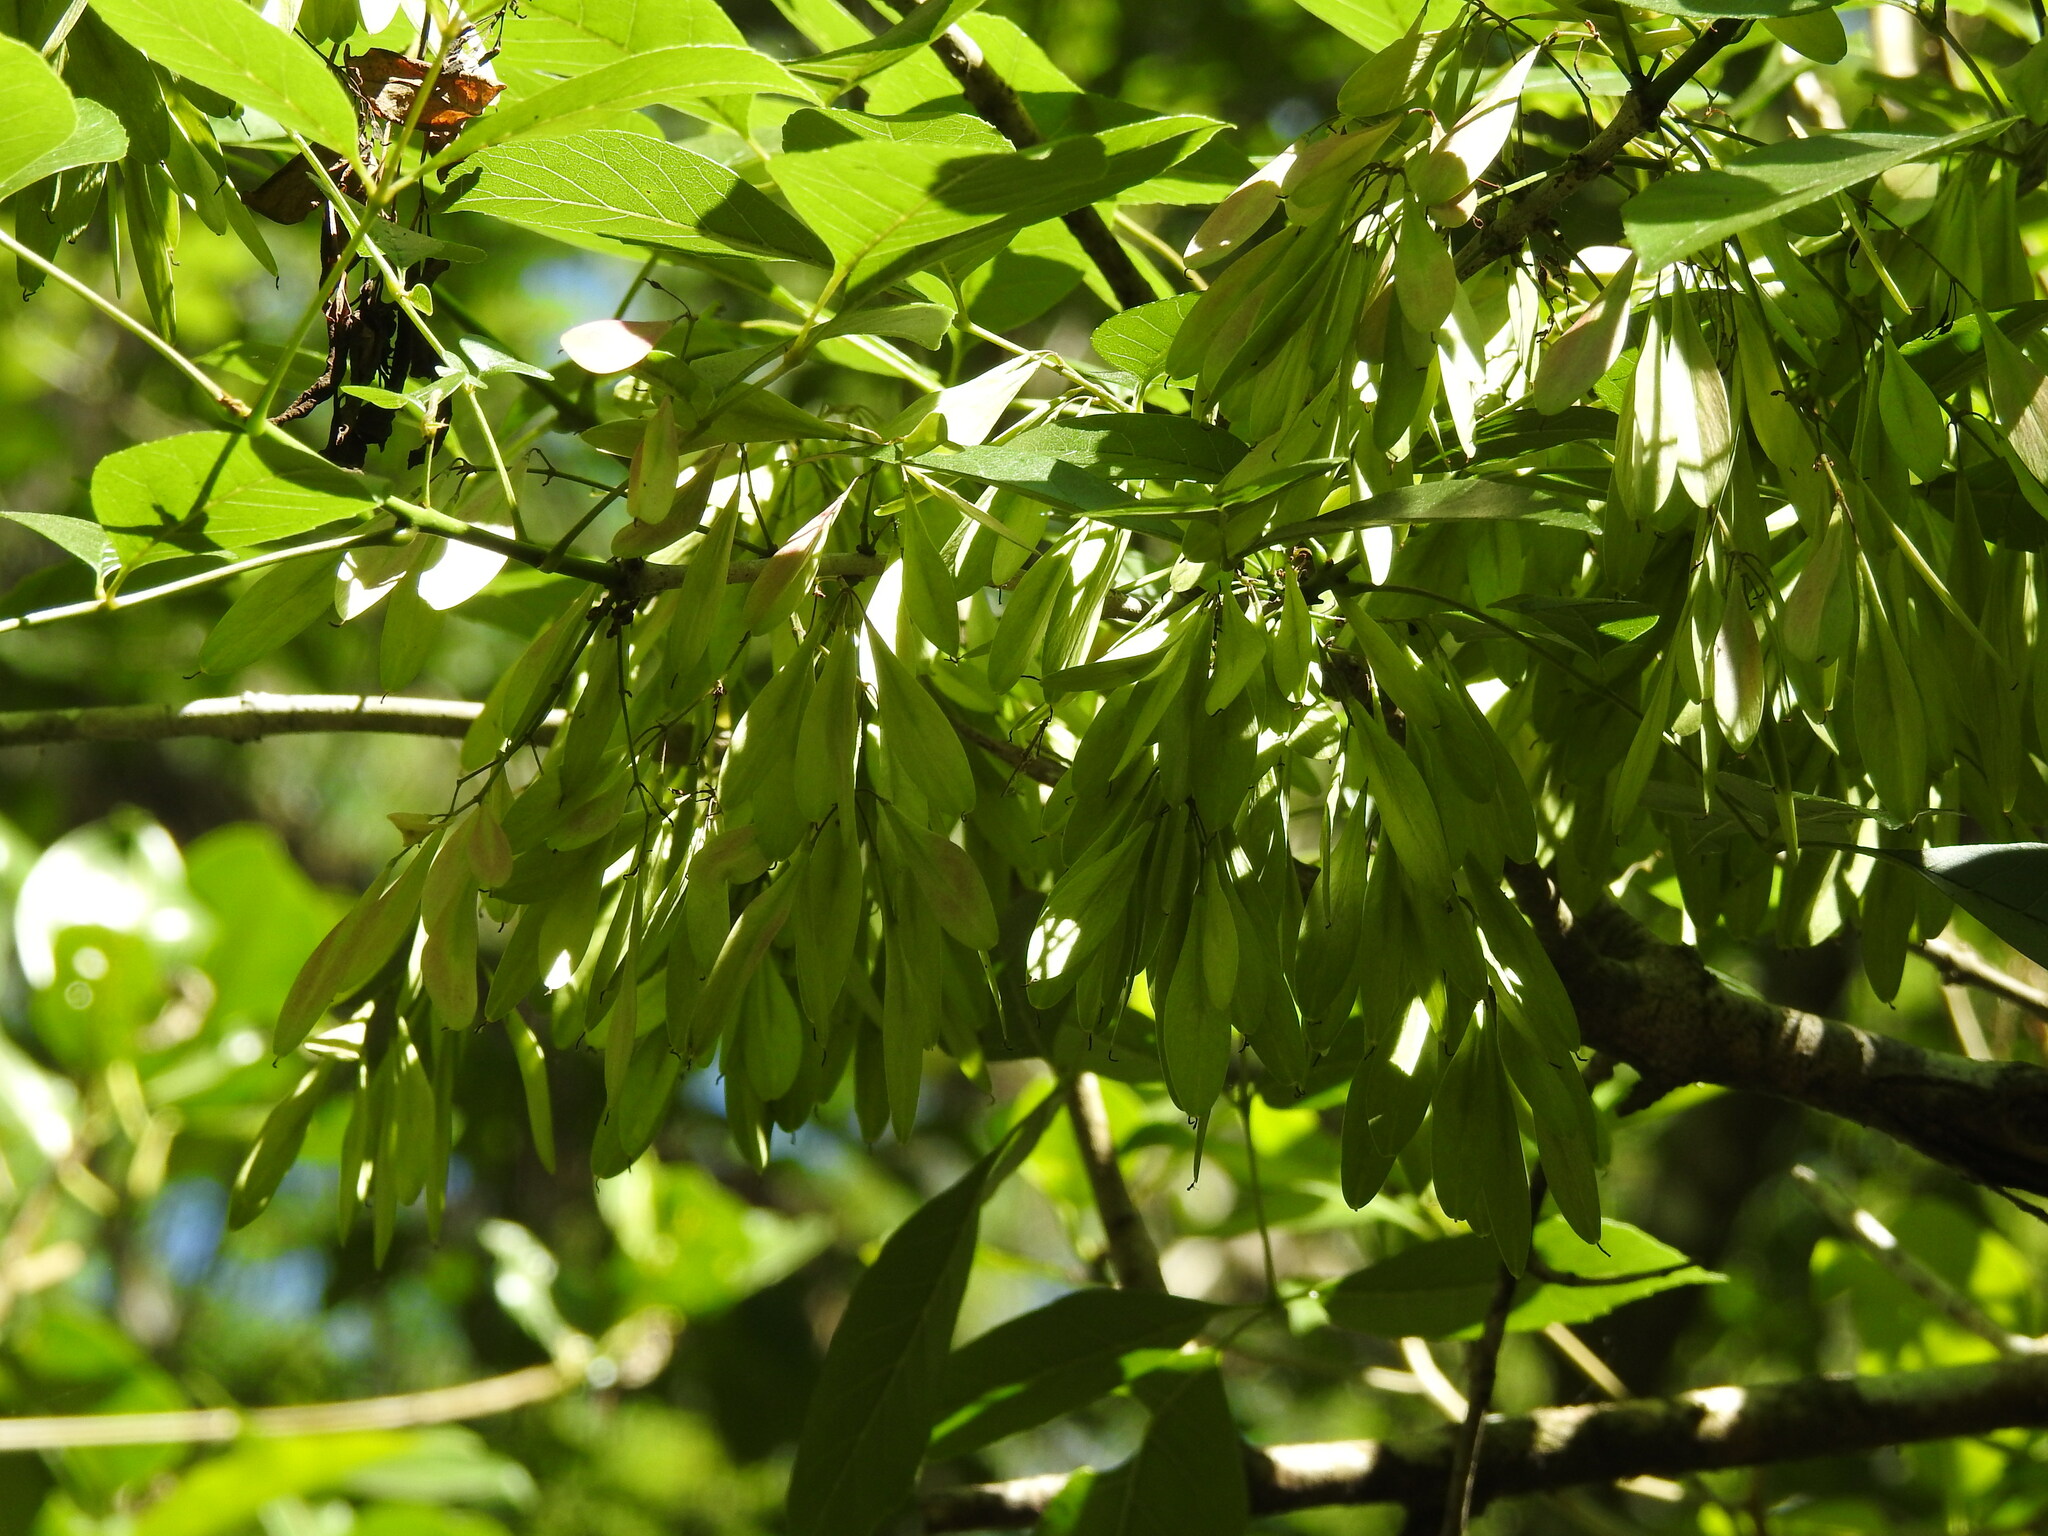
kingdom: Plantae
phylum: Tracheophyta
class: Magnoliopsida
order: Lamiales
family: Oleaceae
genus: Fraxinus
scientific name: Fraxinus caroliniana
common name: Carolina ash
